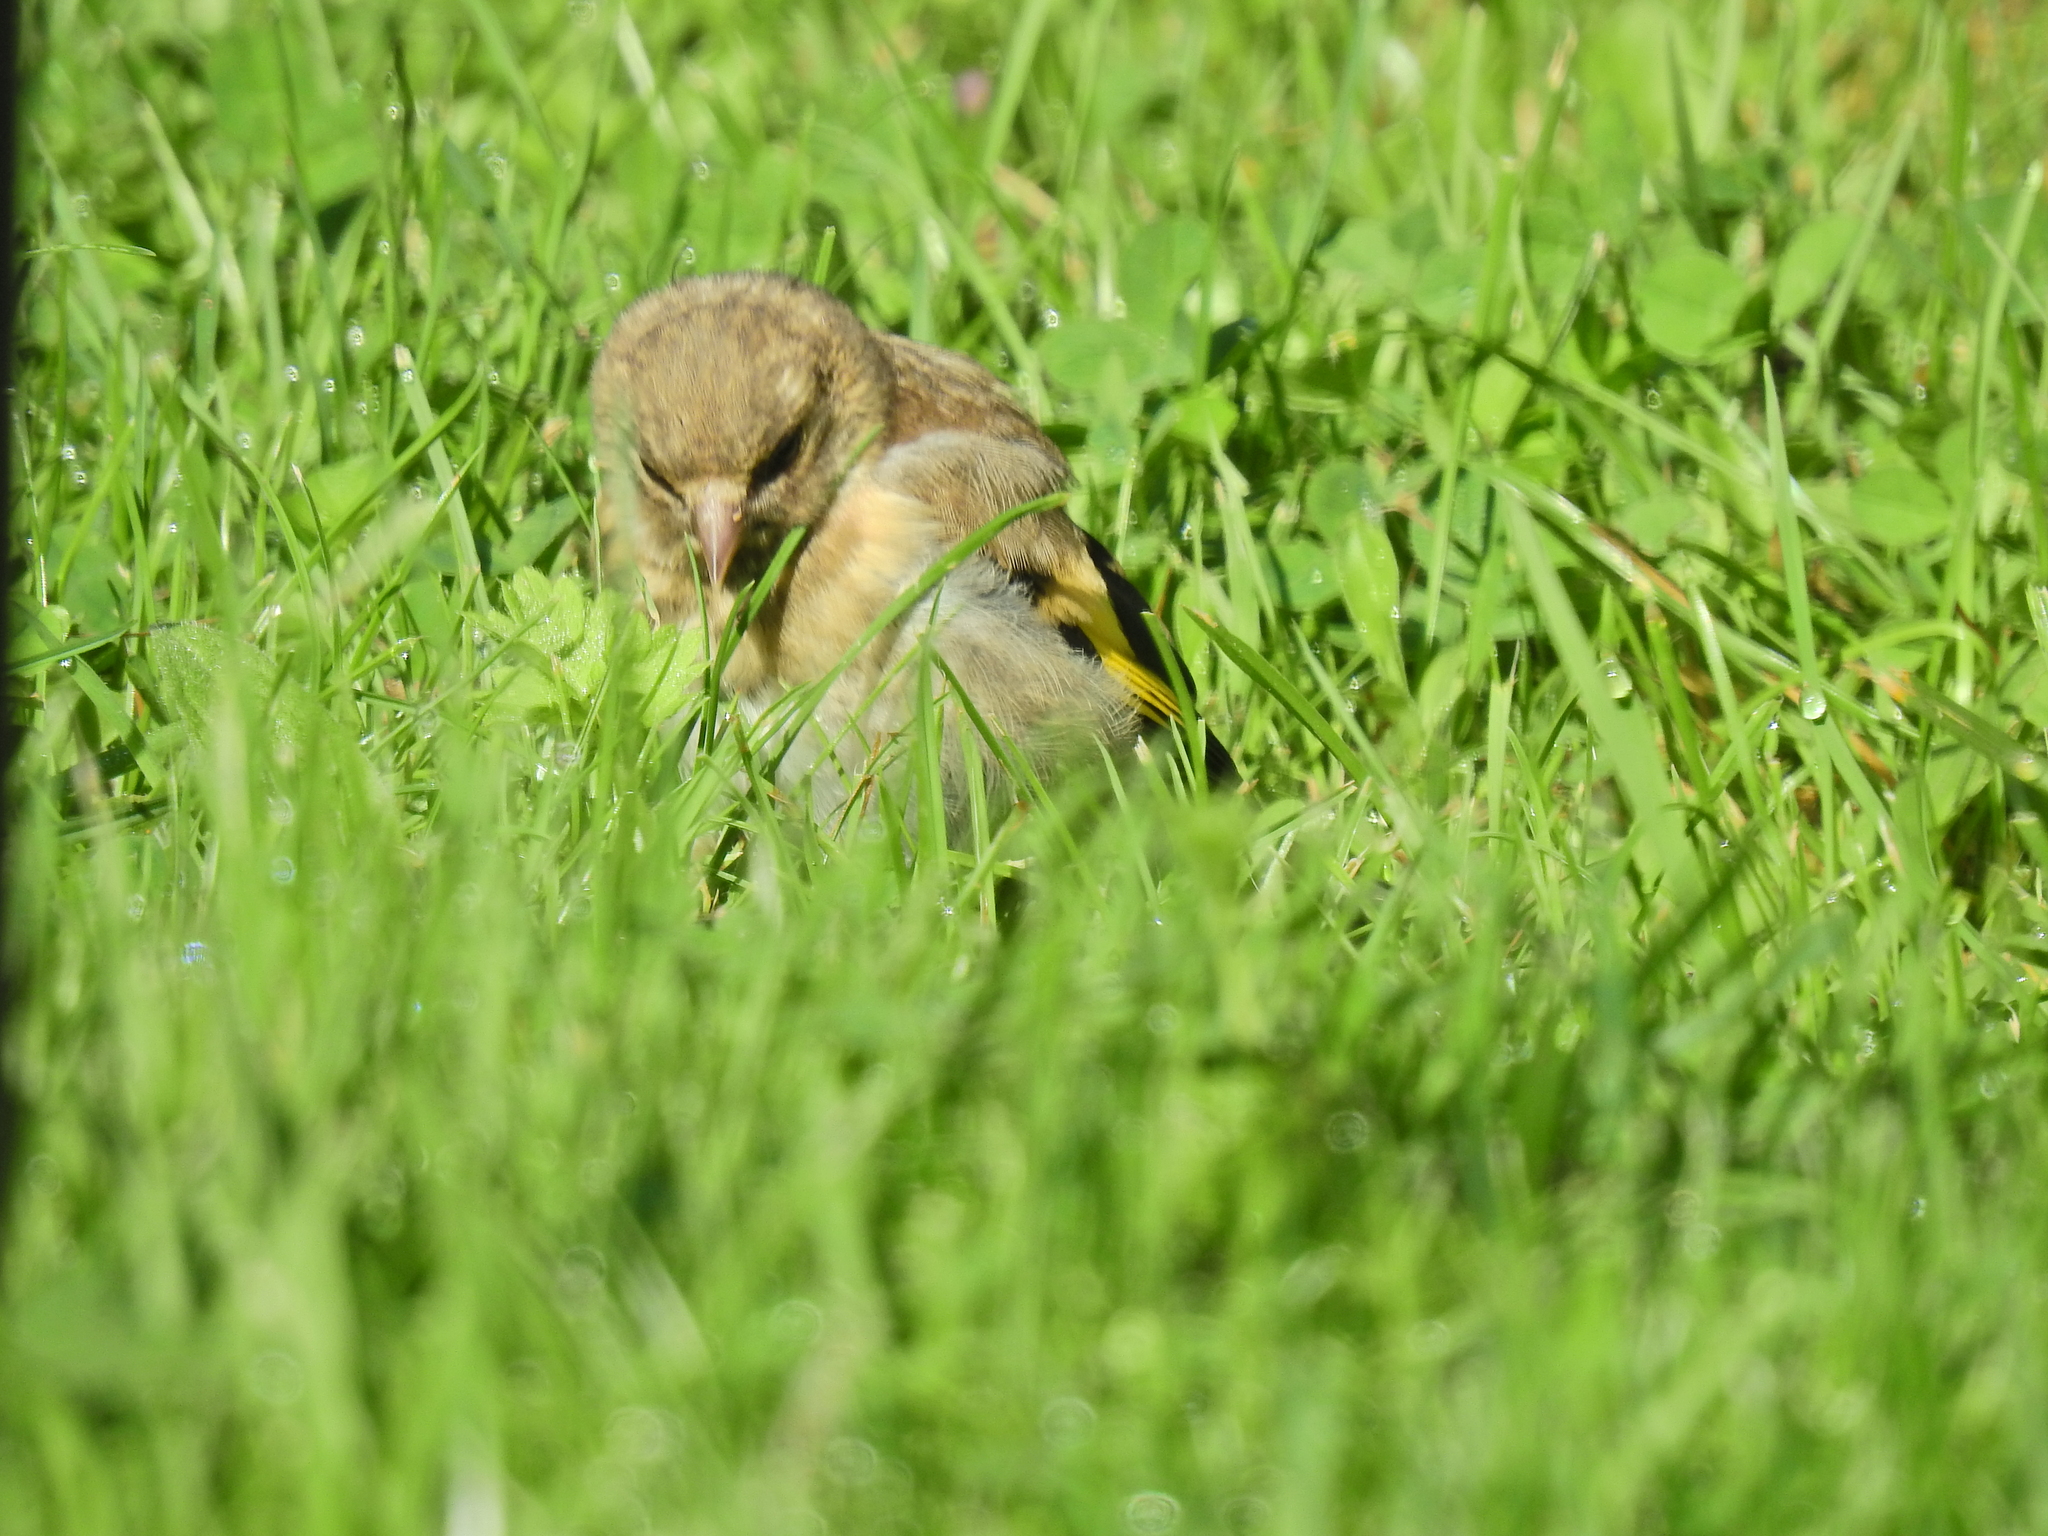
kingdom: Animalia
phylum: Chordata
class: Aves
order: Passeriformes
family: Fringillidae
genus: Carduelis
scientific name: Carduelis carduelis
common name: European goldfinch
